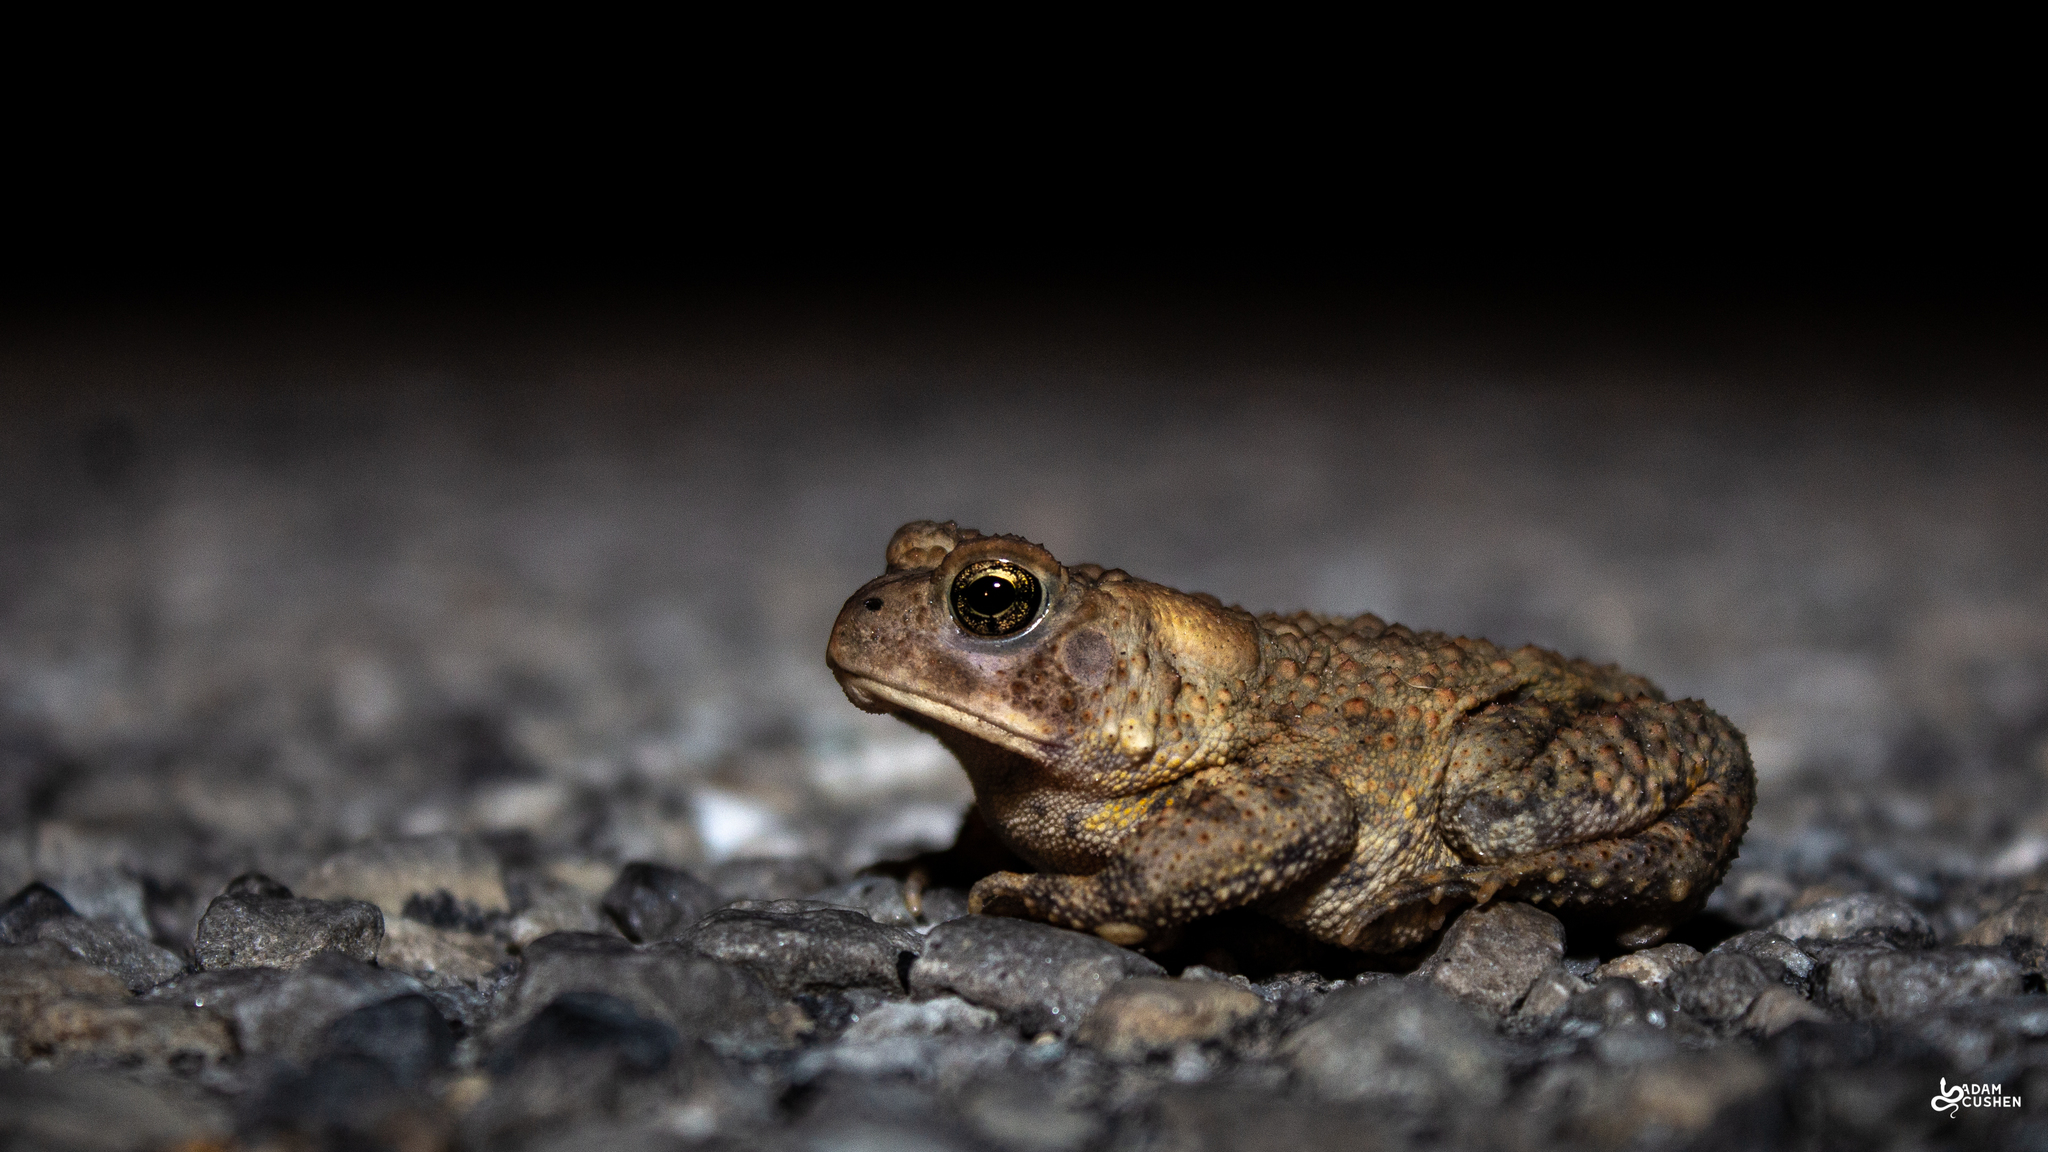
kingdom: Animalia
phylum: Chordata
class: Amphibia
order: Anura
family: Bufonidae
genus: Anaxyrus
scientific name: Anaxyrus americanus
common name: American toad
